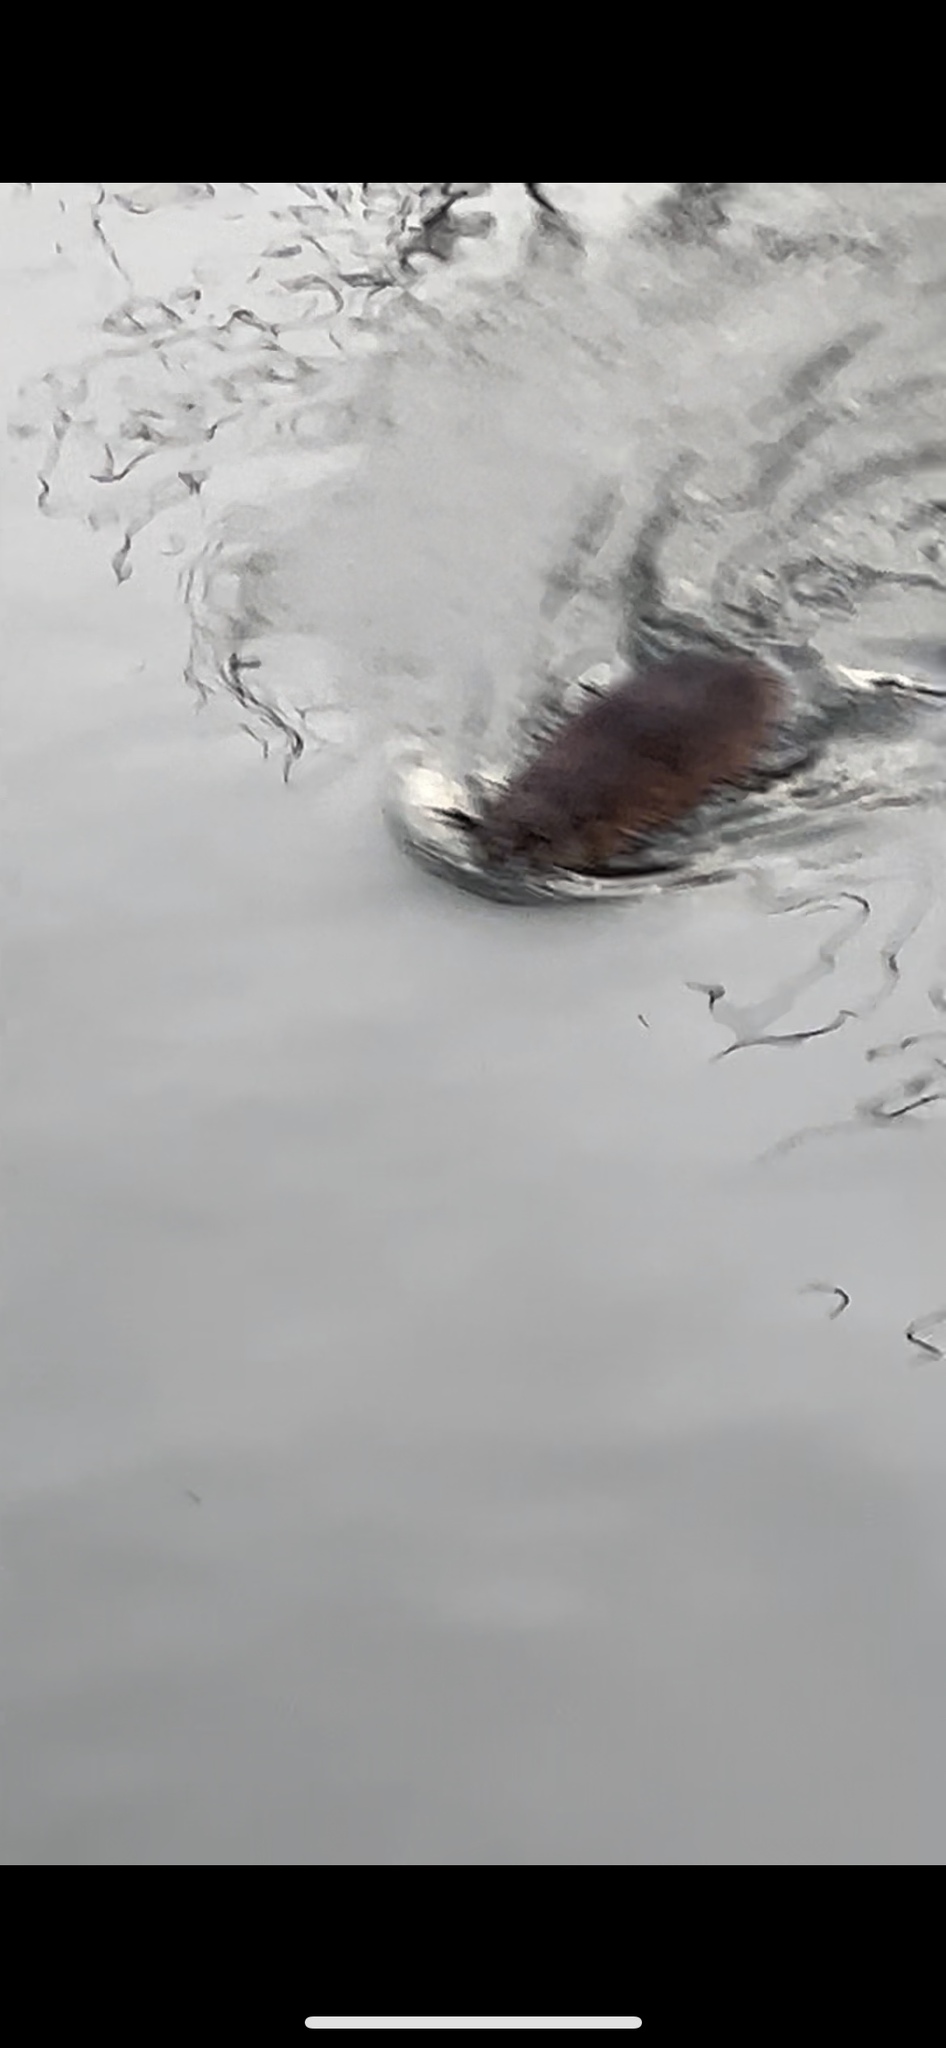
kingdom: Animalia
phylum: Chordata
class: Mammalia
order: Rodentia
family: Cricetidae
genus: Ondatra
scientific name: Ondatra zibethicus
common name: Muskrat
